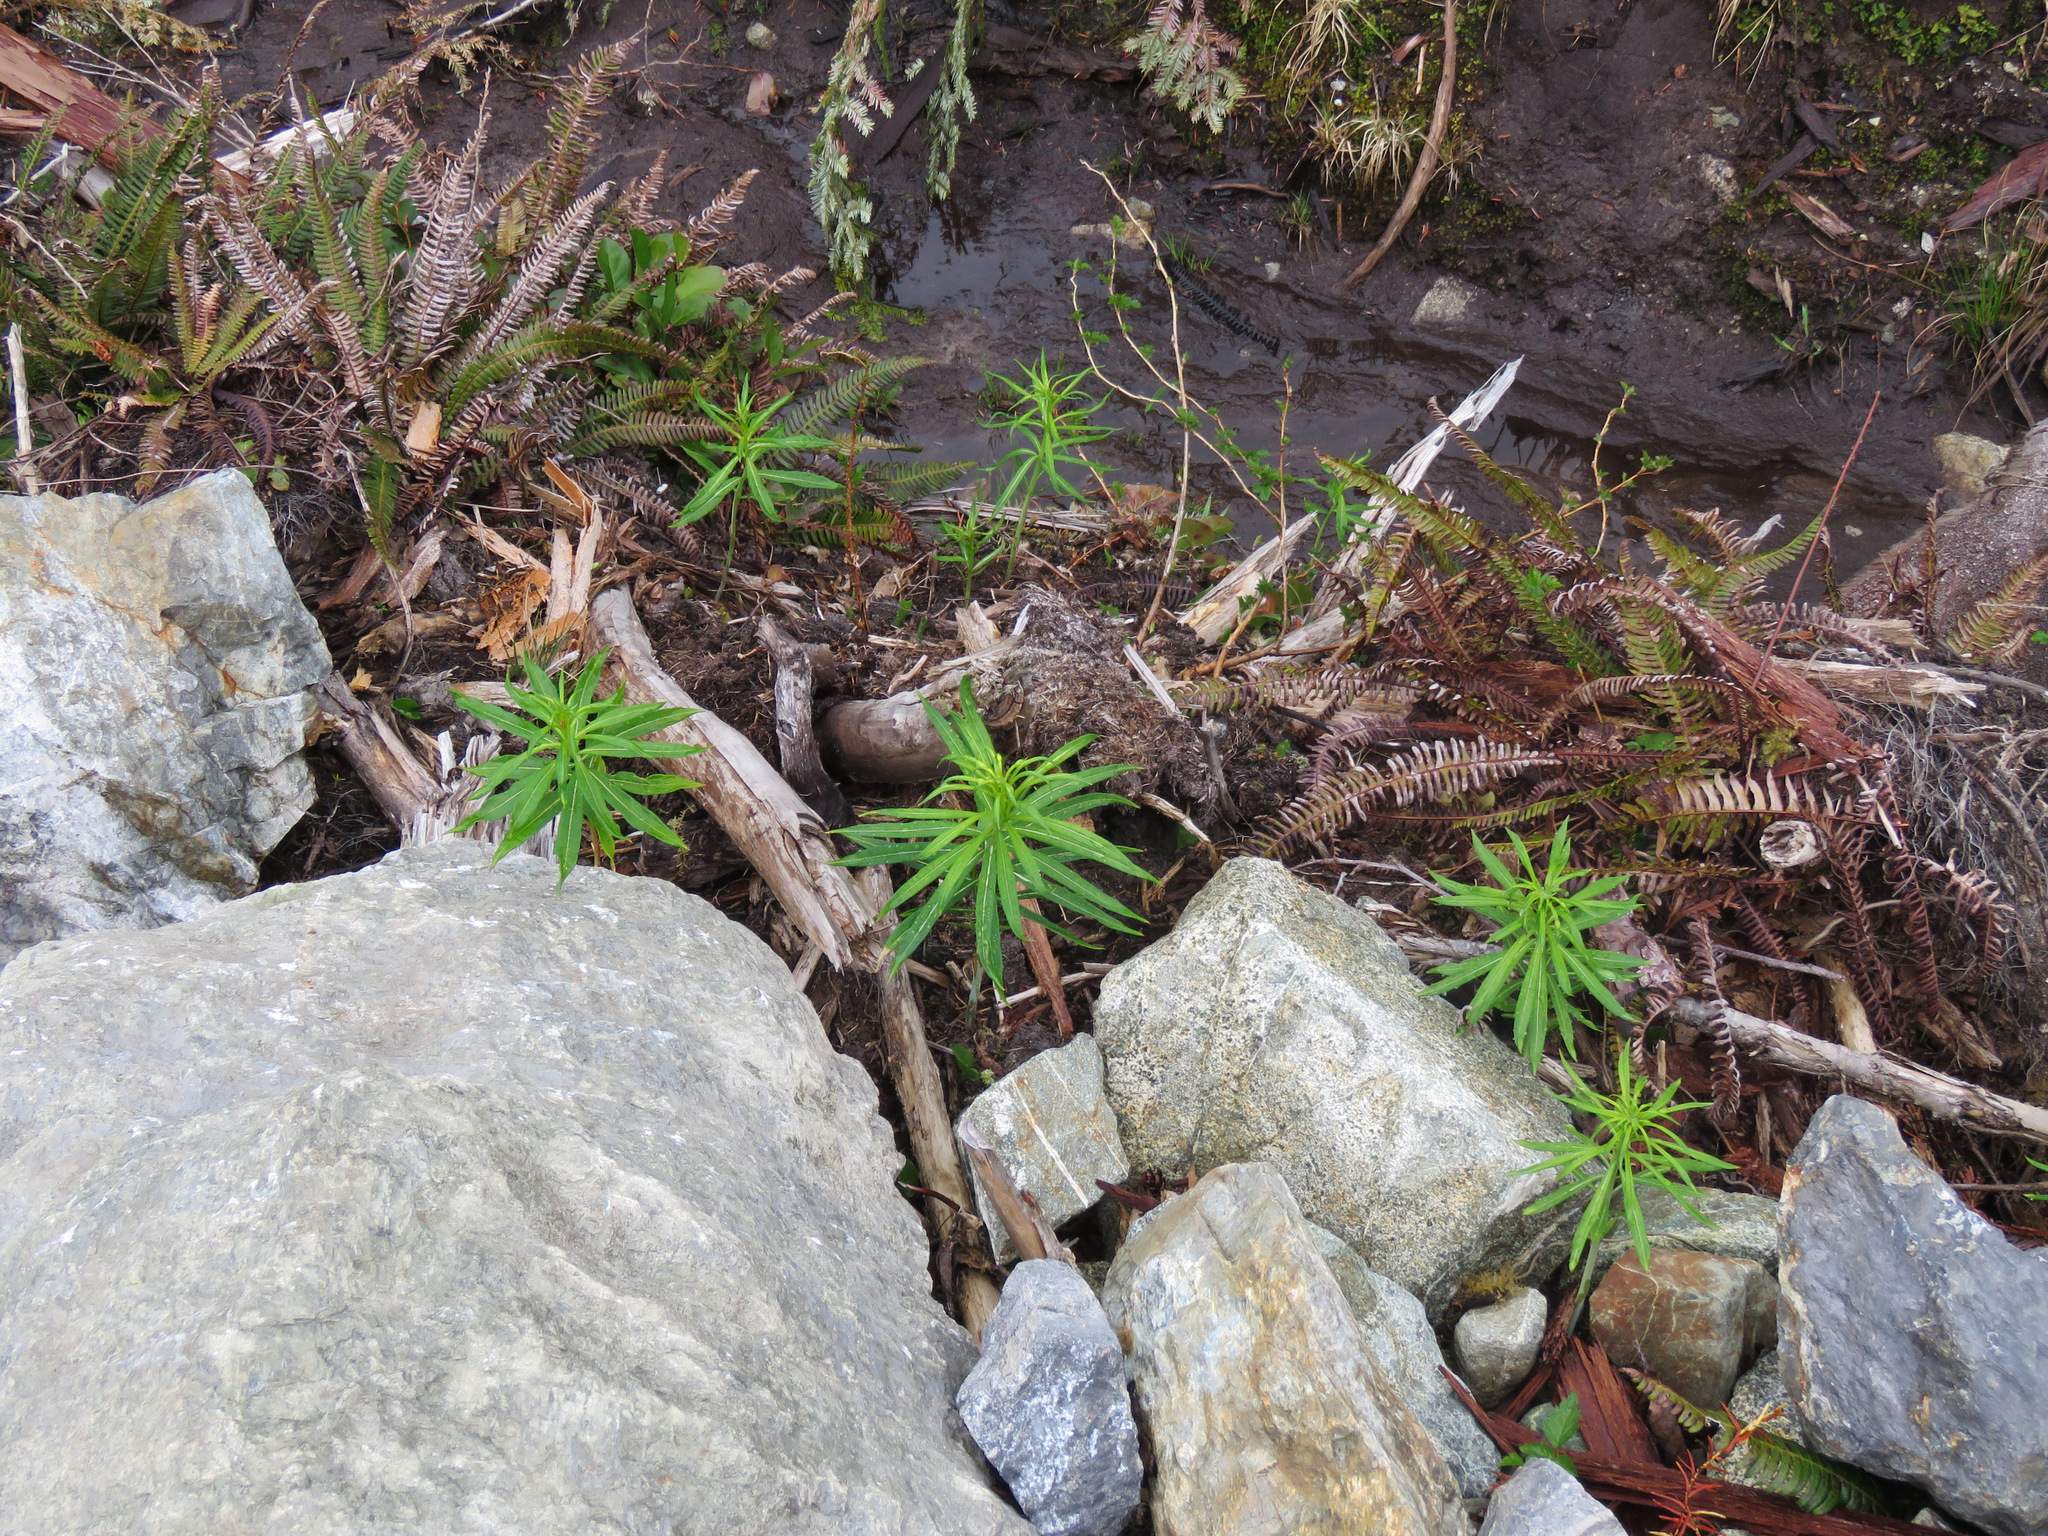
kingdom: Plantae
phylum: Tracheophyta
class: Magnoliopsida
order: Myrtales
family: Onagraceae
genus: Chamaenerion
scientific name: Chamaenerion angustifolium
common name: Fireweed
